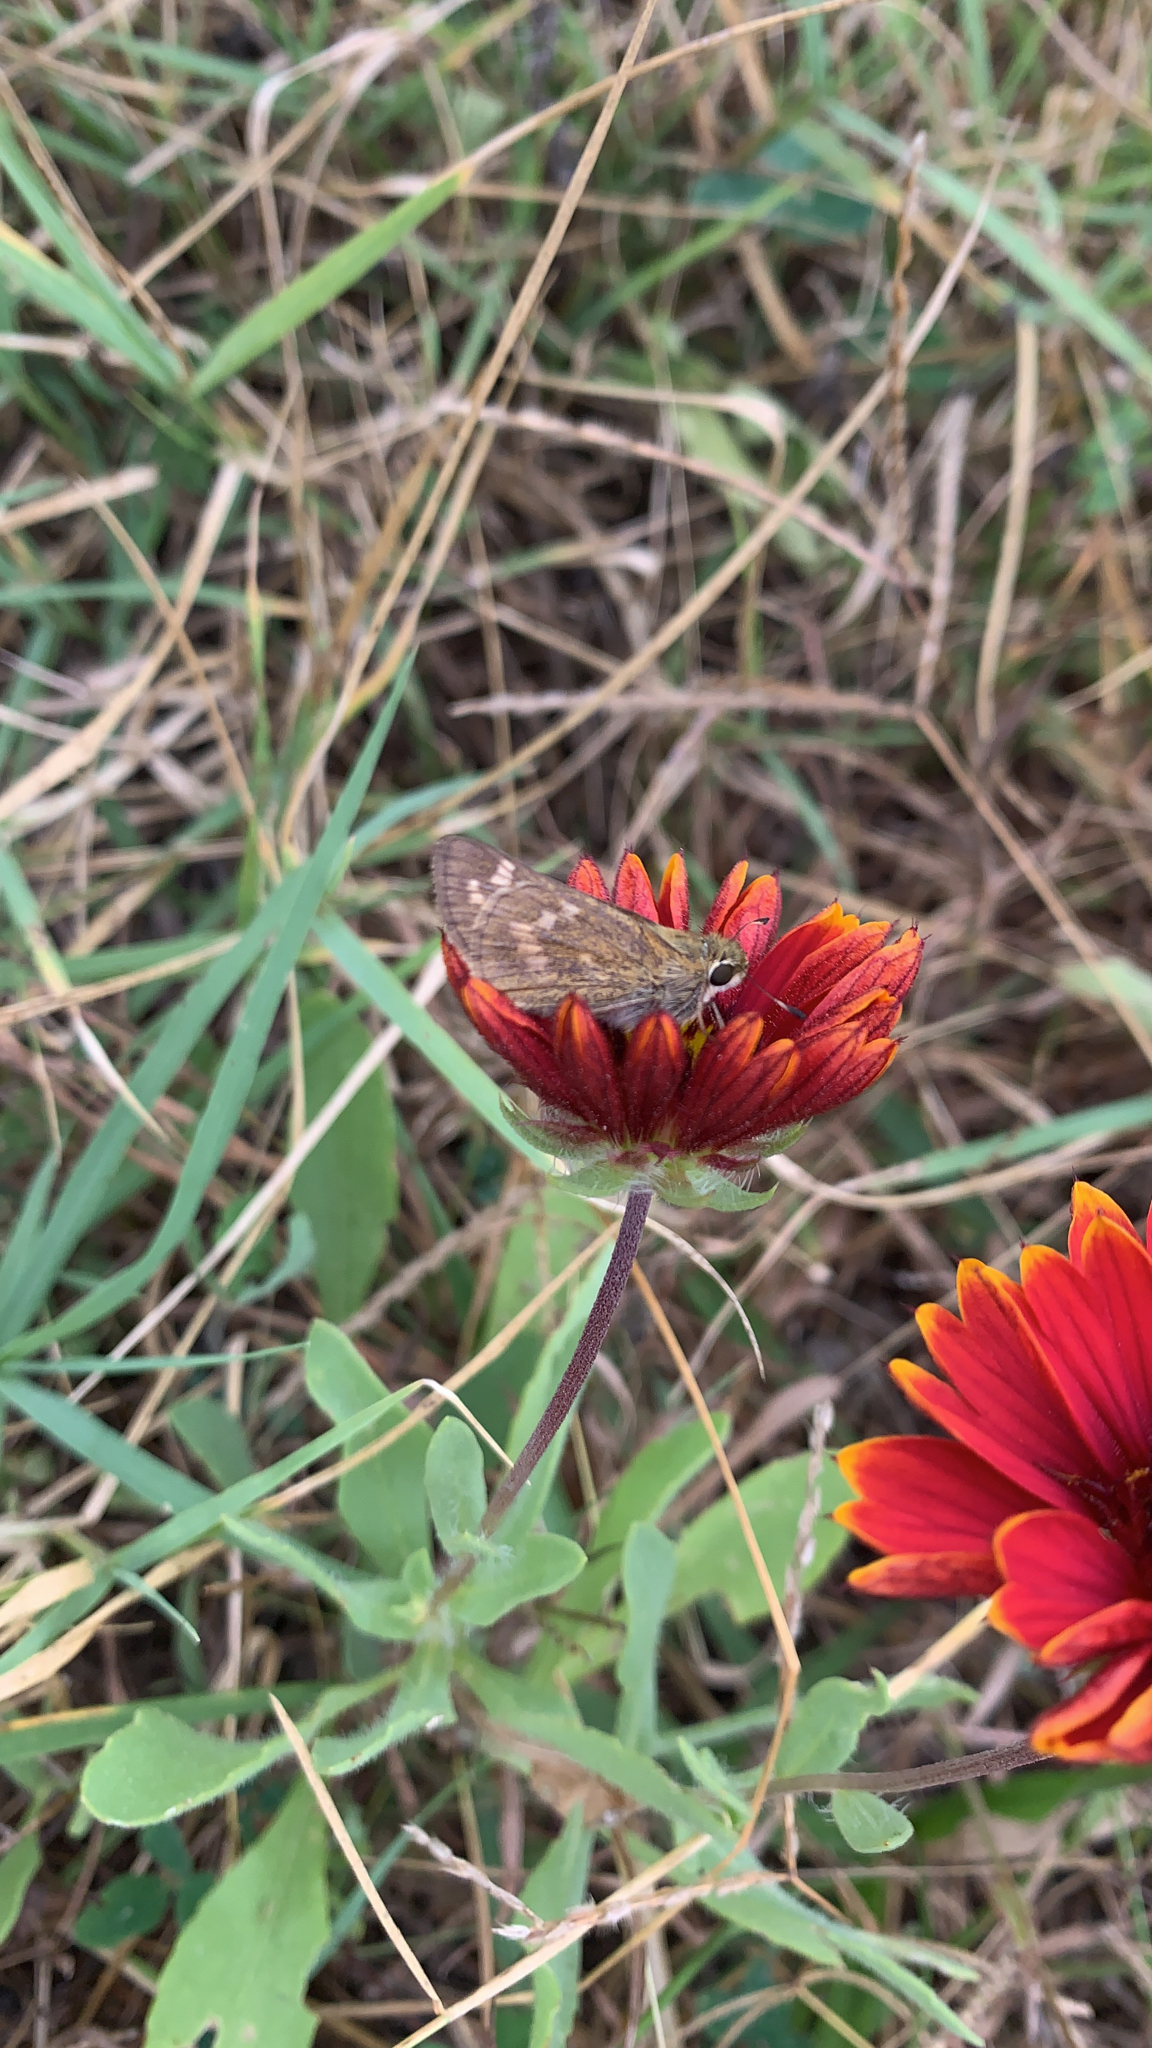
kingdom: Animalia
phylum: Arthropoda
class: Insecta
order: Lepidoptera
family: Hesperiidae
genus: Atalopedes
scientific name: Atalopedes
